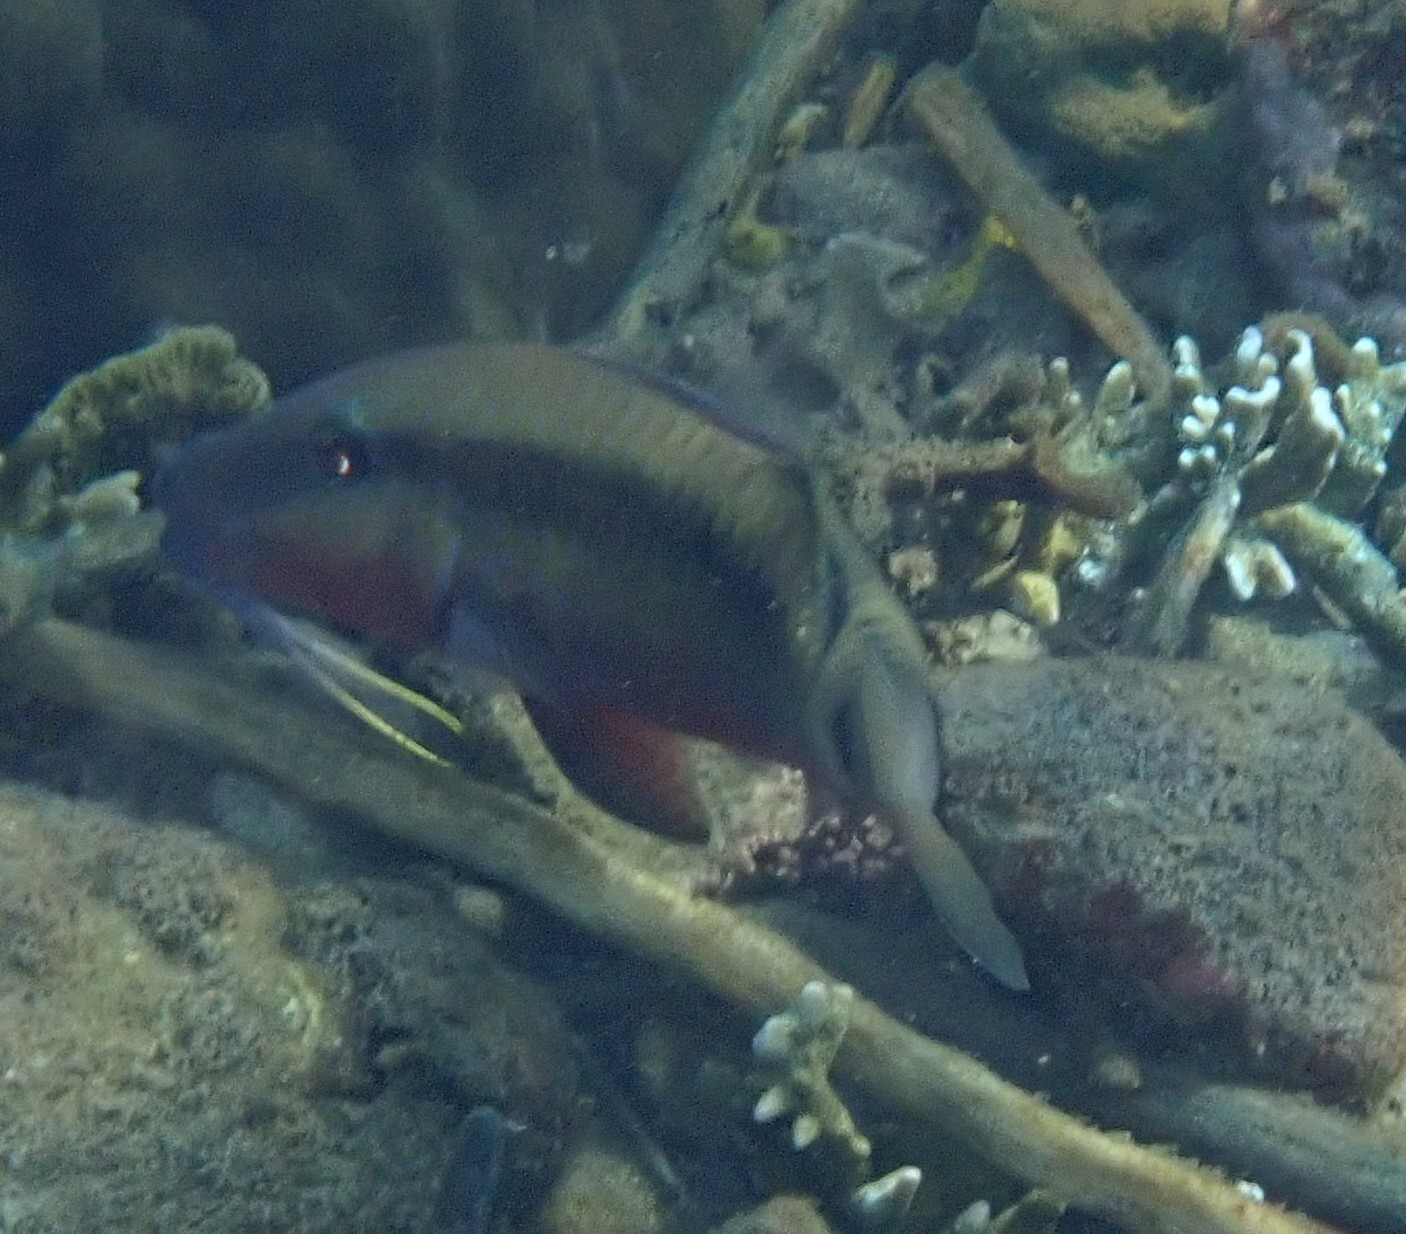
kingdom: Animalia
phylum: Chordata
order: Perciformes
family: Mullidae
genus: Parupeneus
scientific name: Parupeneus macronemus
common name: Long-barbel goatfish
